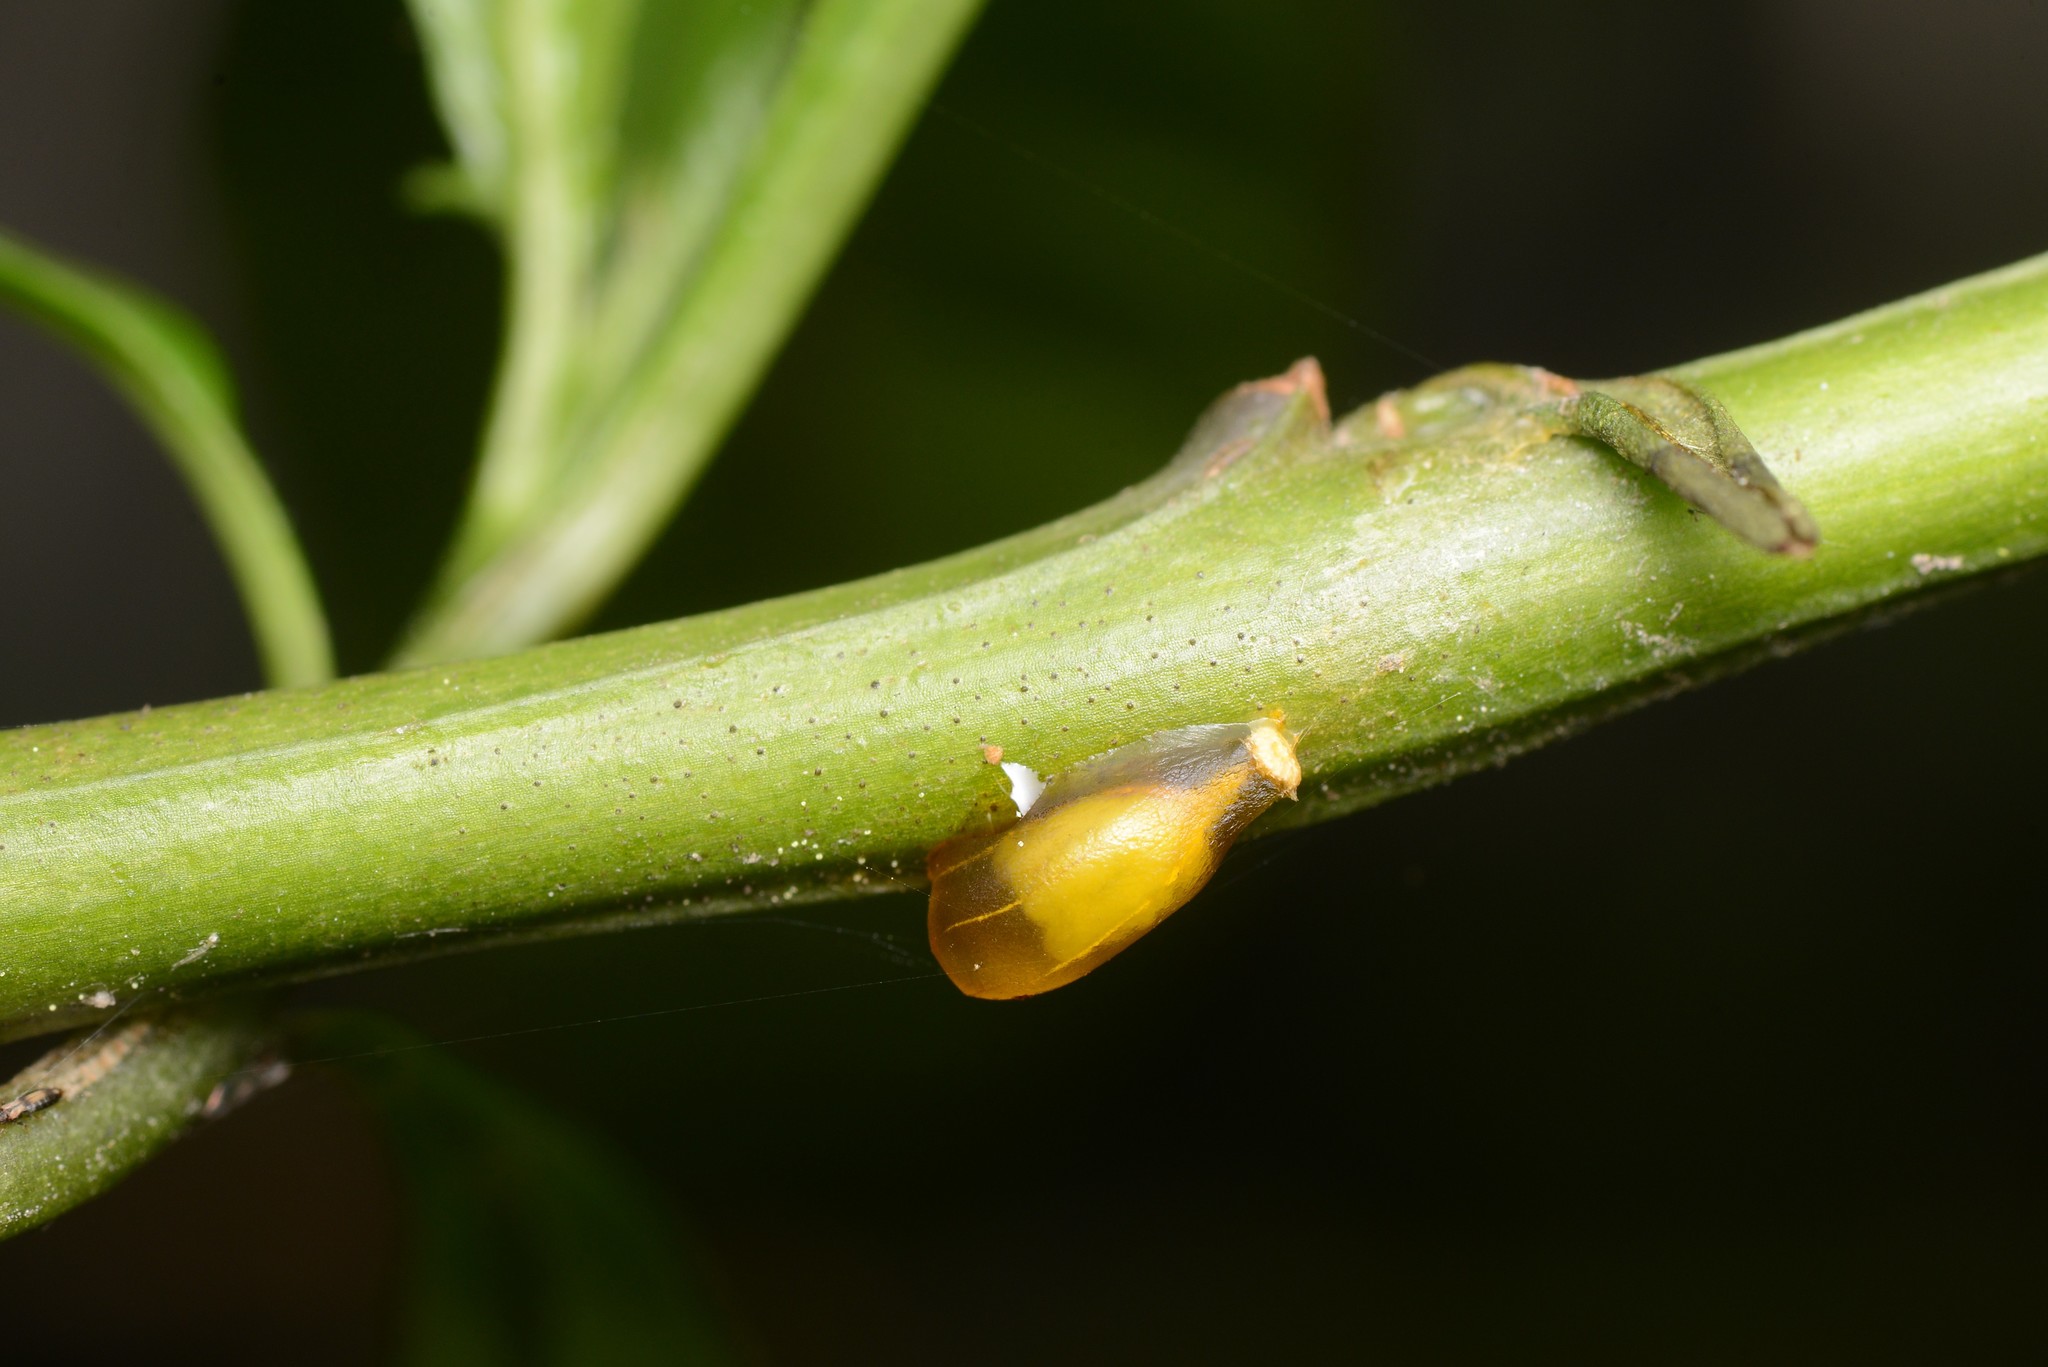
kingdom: Plantae
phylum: Tracheophyta
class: Magnoliopsida
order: Santalales
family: Loranthaceae
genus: Ileostylus
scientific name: Ileostylus micranthus
